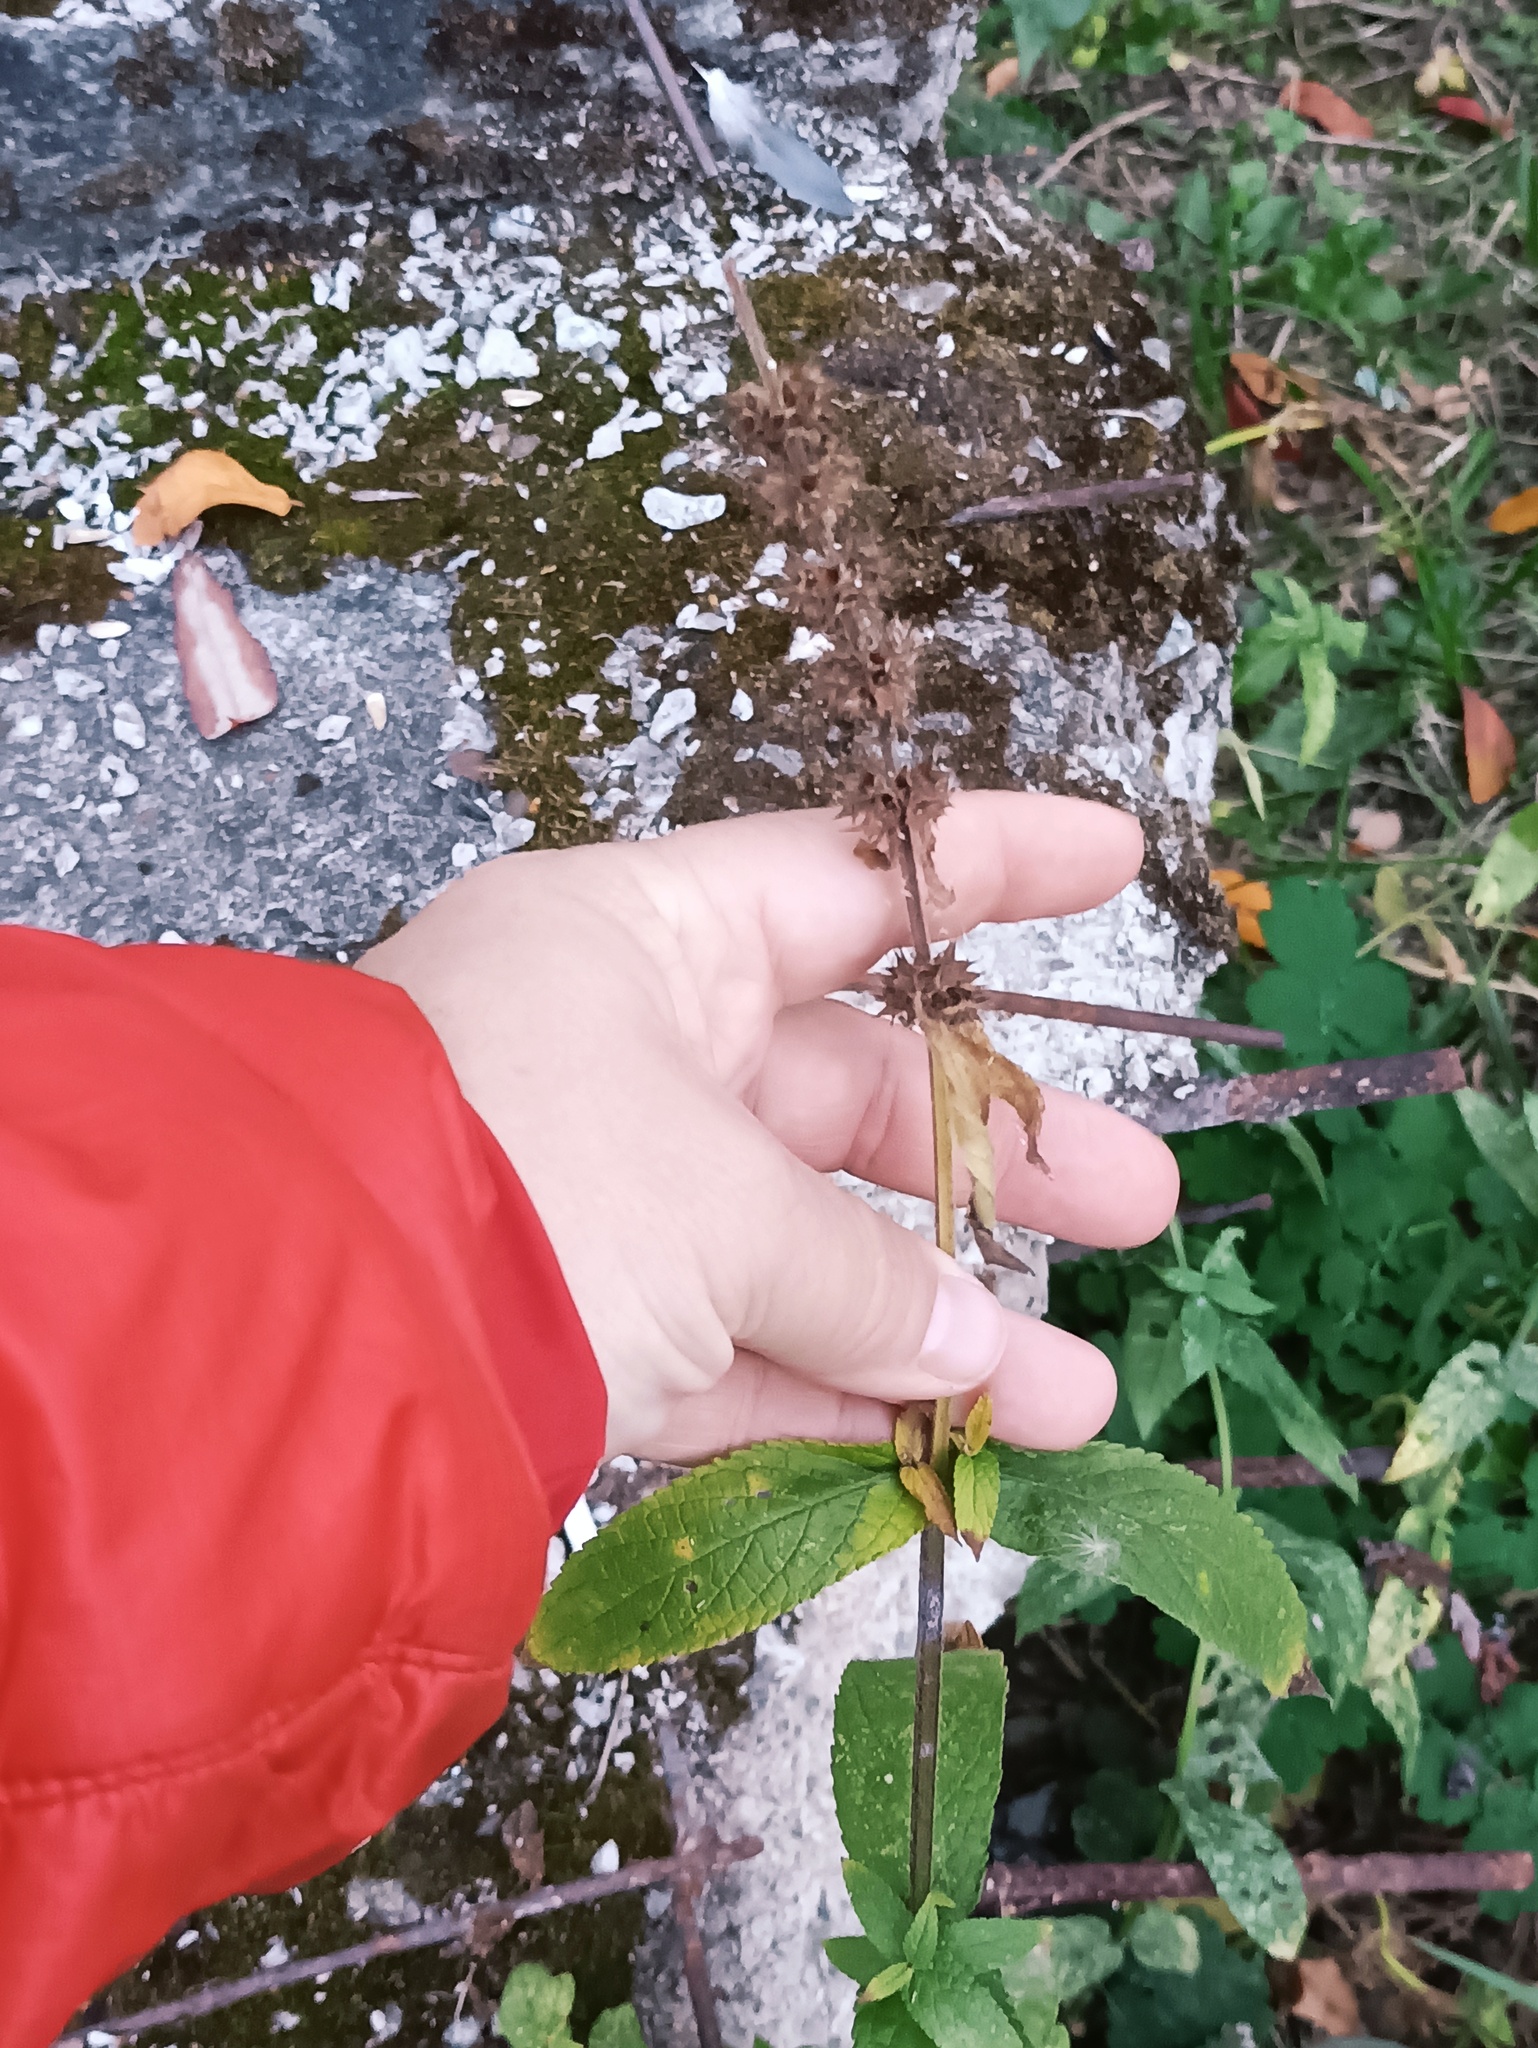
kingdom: Plantae
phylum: Tracheophyta
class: Magnoliopsida
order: Lamiales
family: Lamiaceae
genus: Stachys
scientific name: Stachys palustris
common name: Marsh woundwort
